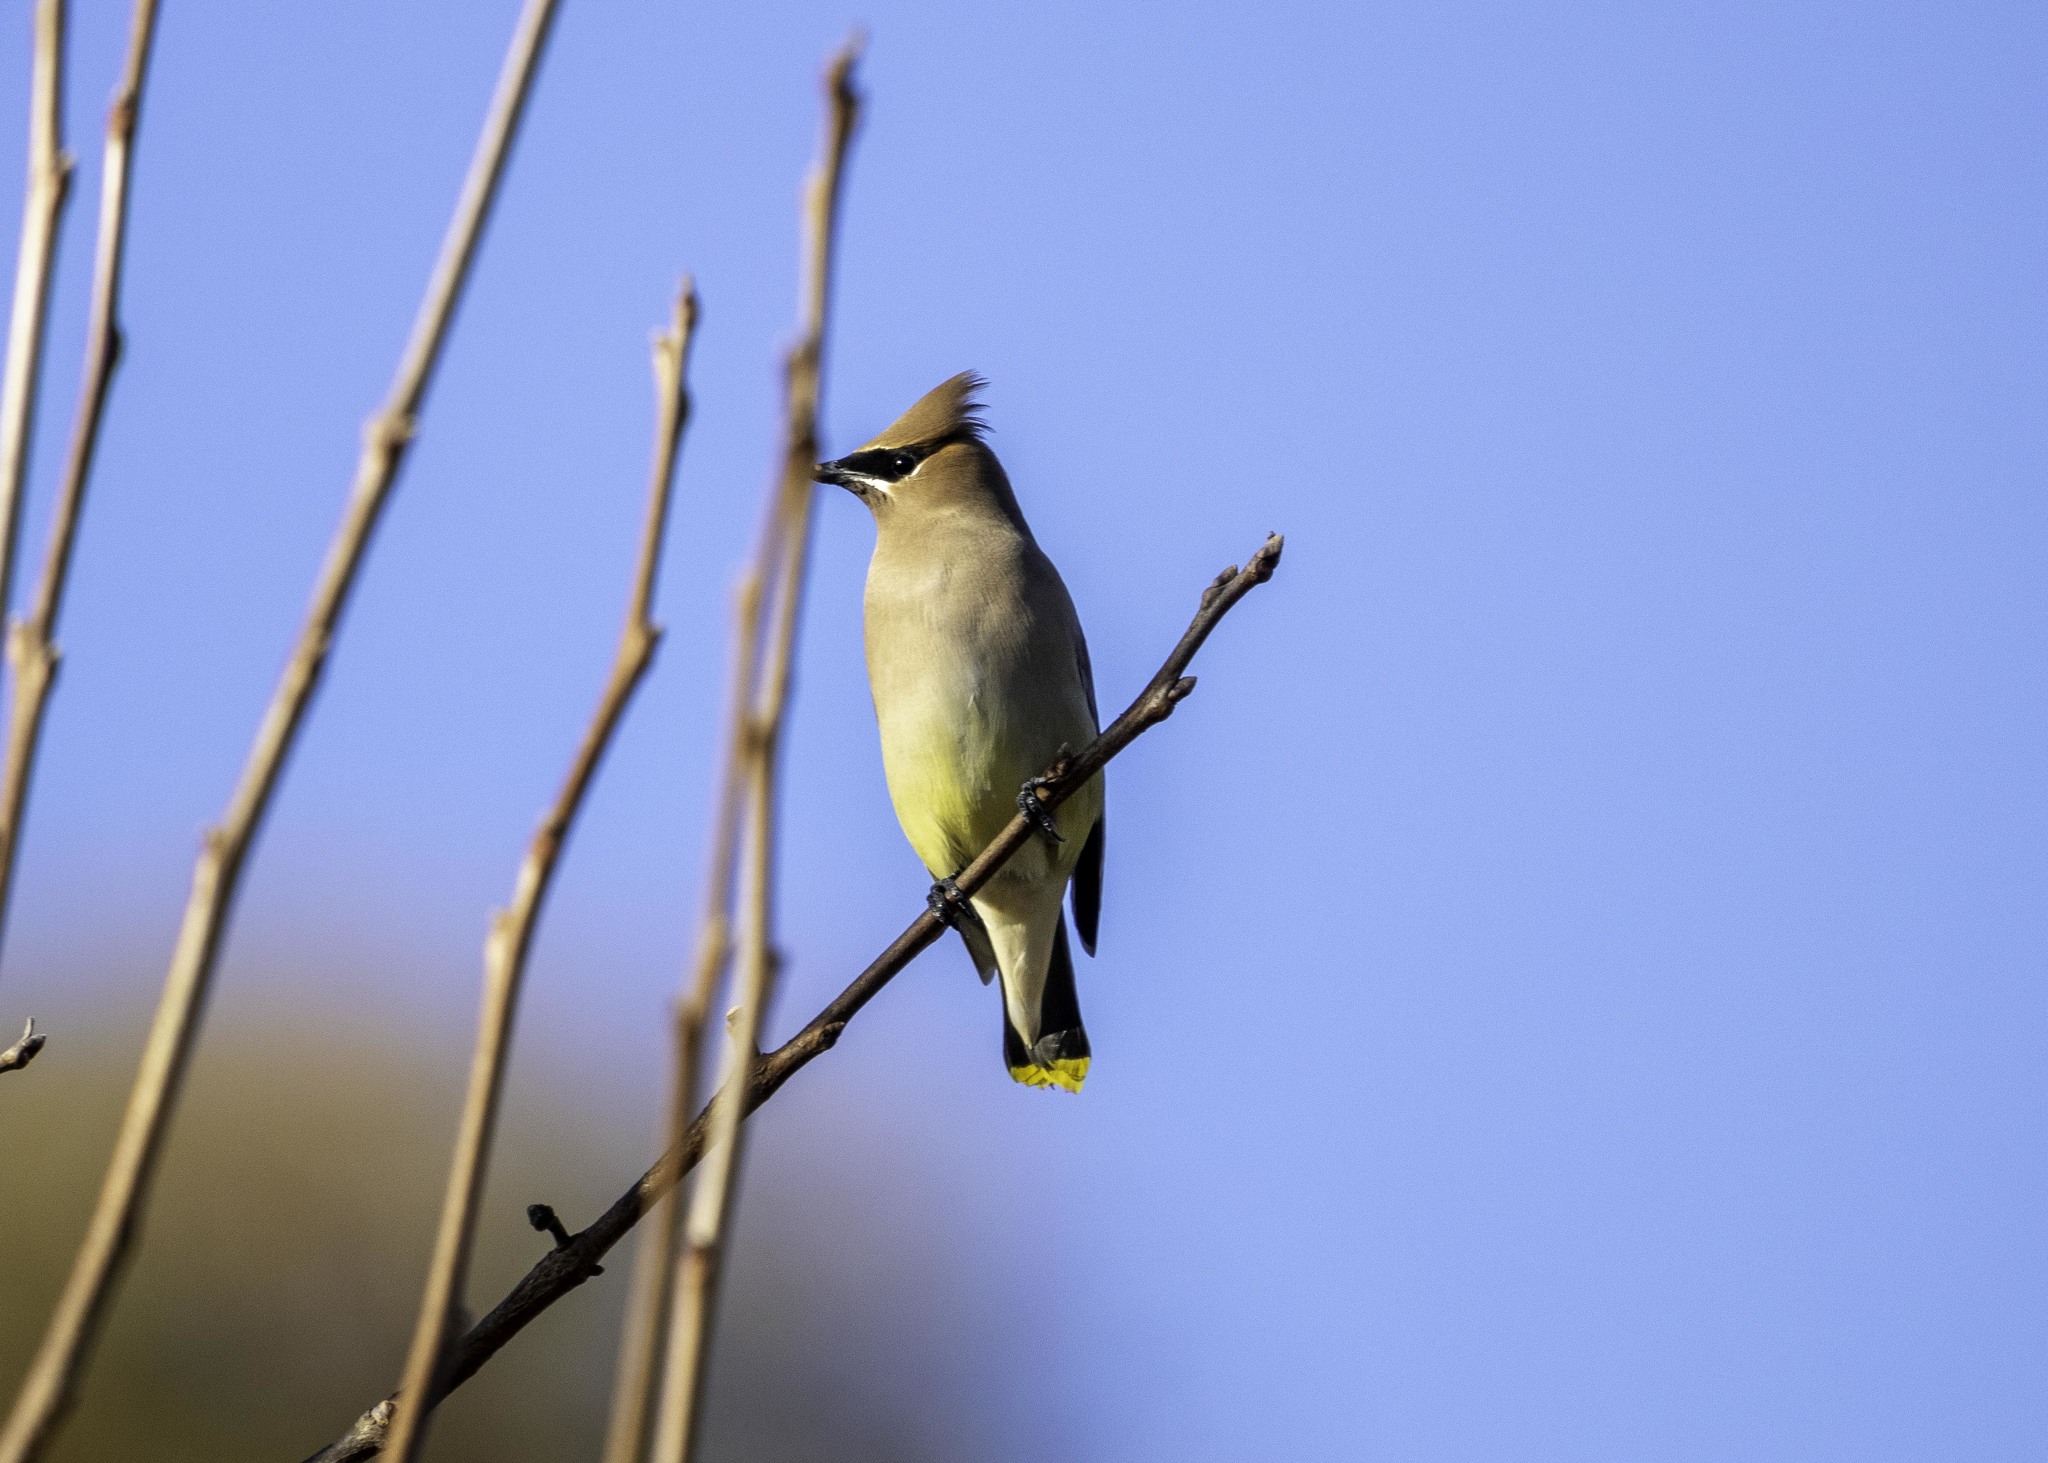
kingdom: Animalia
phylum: Chordata
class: Aves
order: Passeriformes
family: Bombycillidae
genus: Bombycilla
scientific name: Bombycilla cedrorum
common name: Cedar waxwing
